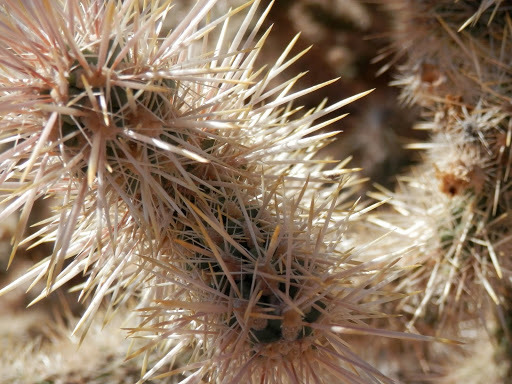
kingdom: Plantae
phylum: Tracheophyta
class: Magnoliopsida
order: Caryophyllales
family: Cactaceae
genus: Cylindropuntia
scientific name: Cylindropuntia echinocarpa
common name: Ground cholla
